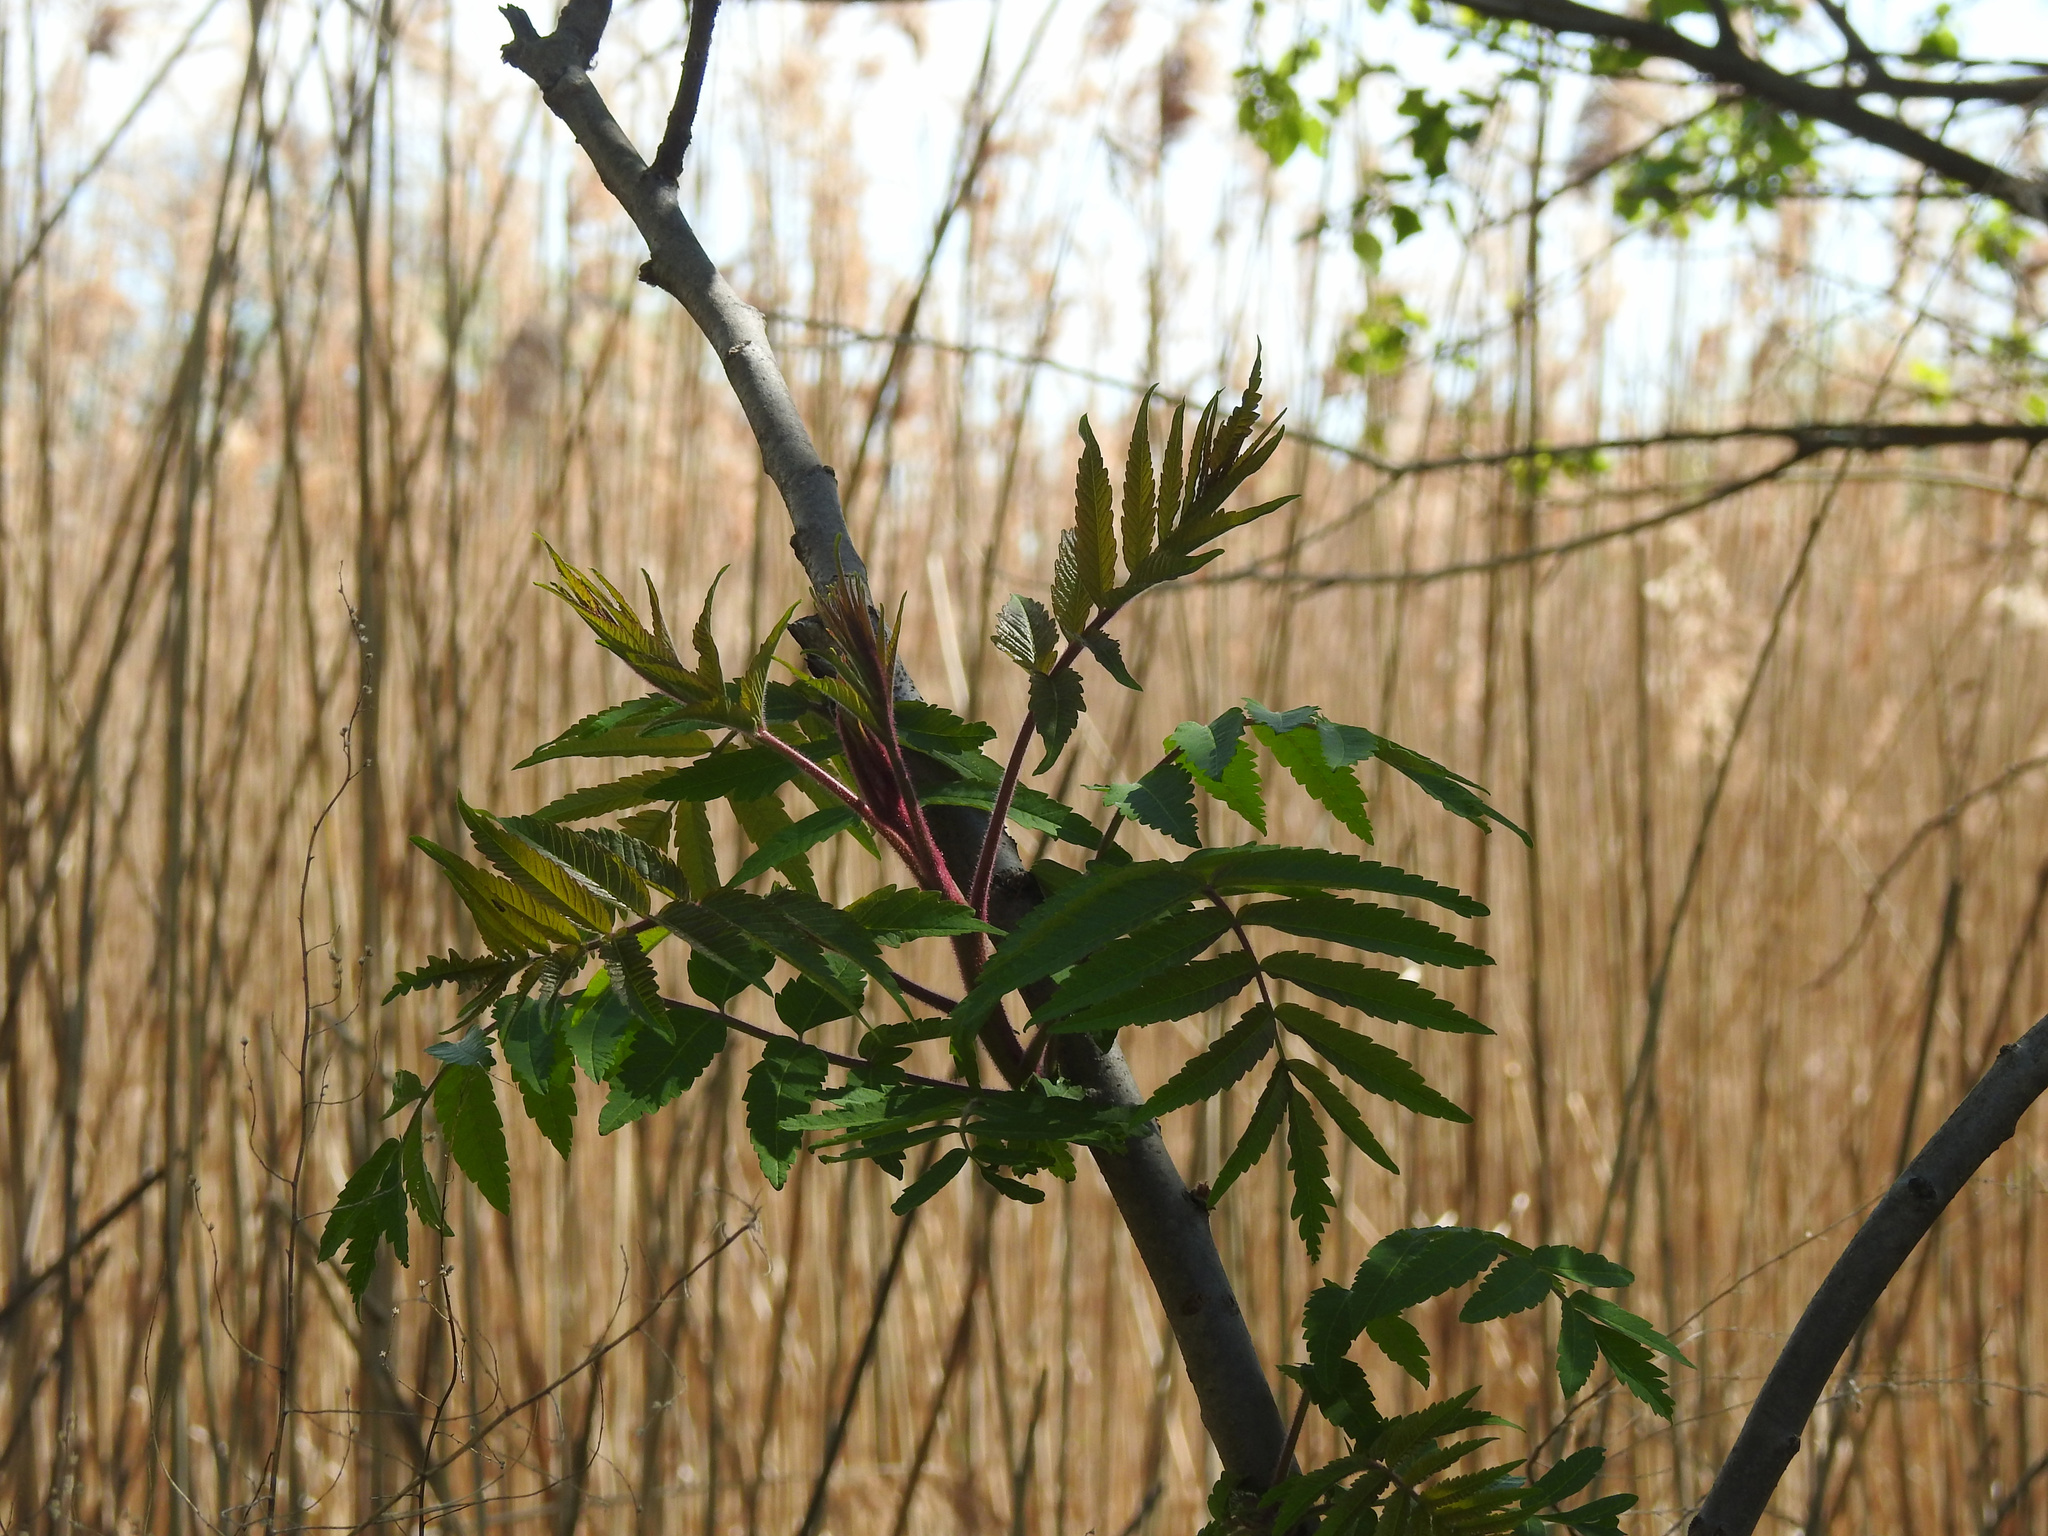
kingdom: Plantae
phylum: Tracheophyta
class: Magnoliopsida
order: Sapindales
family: Anacardiaceae
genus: Rhus
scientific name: Rhus typhina
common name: Staghorn sumac
